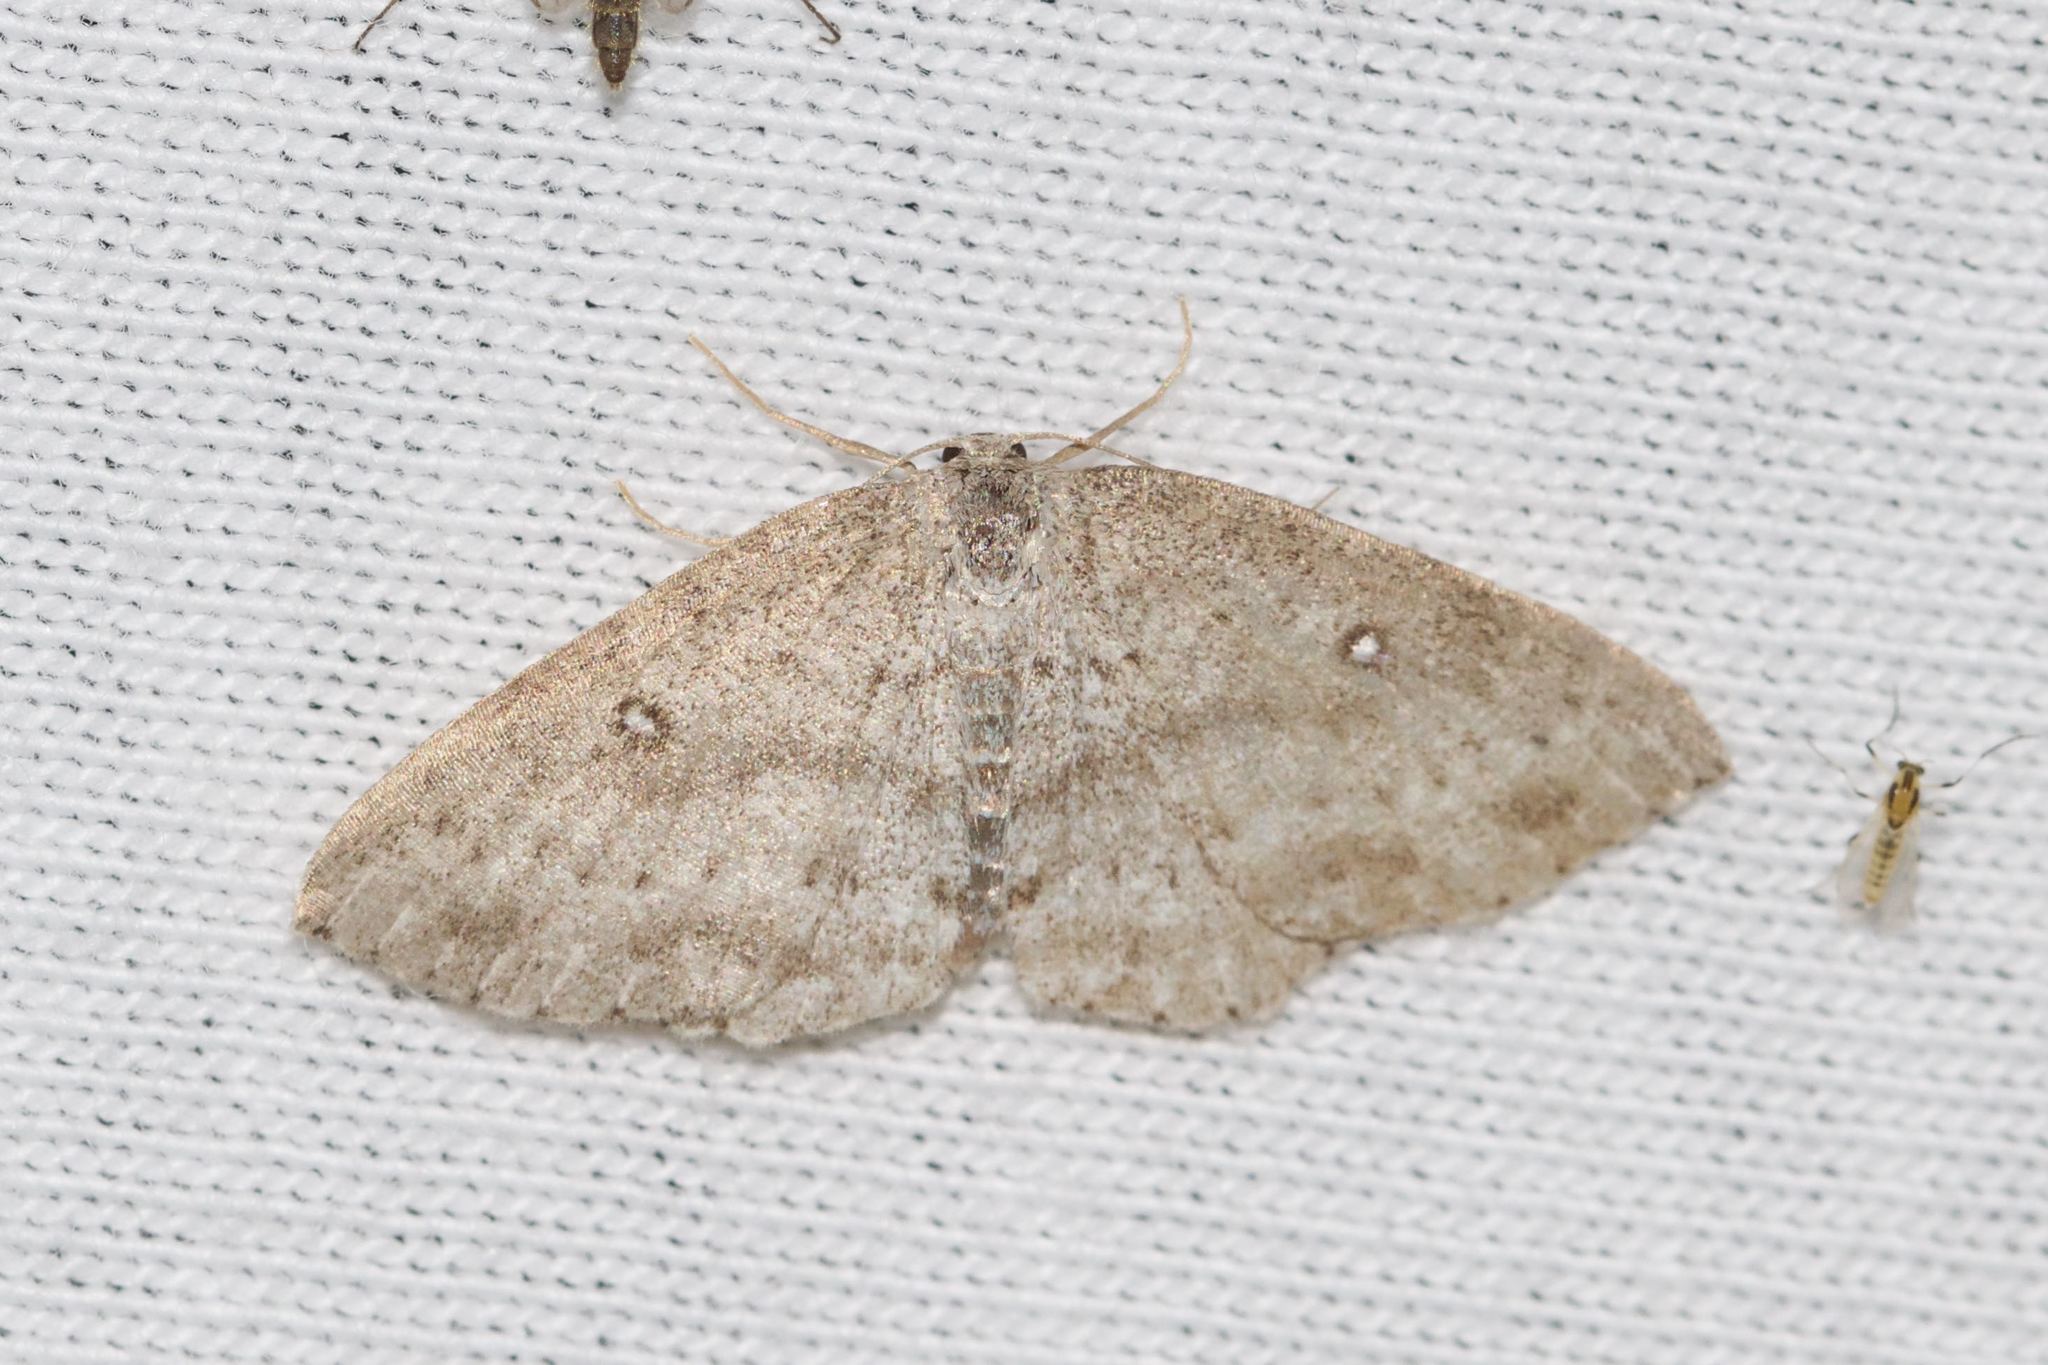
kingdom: Animalia
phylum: Arthropoda
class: Insecta
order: Lepidoptera
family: Geometridae
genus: Cyclophora
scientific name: Cyclophora pendulinaria
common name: Sweet fern geometer
